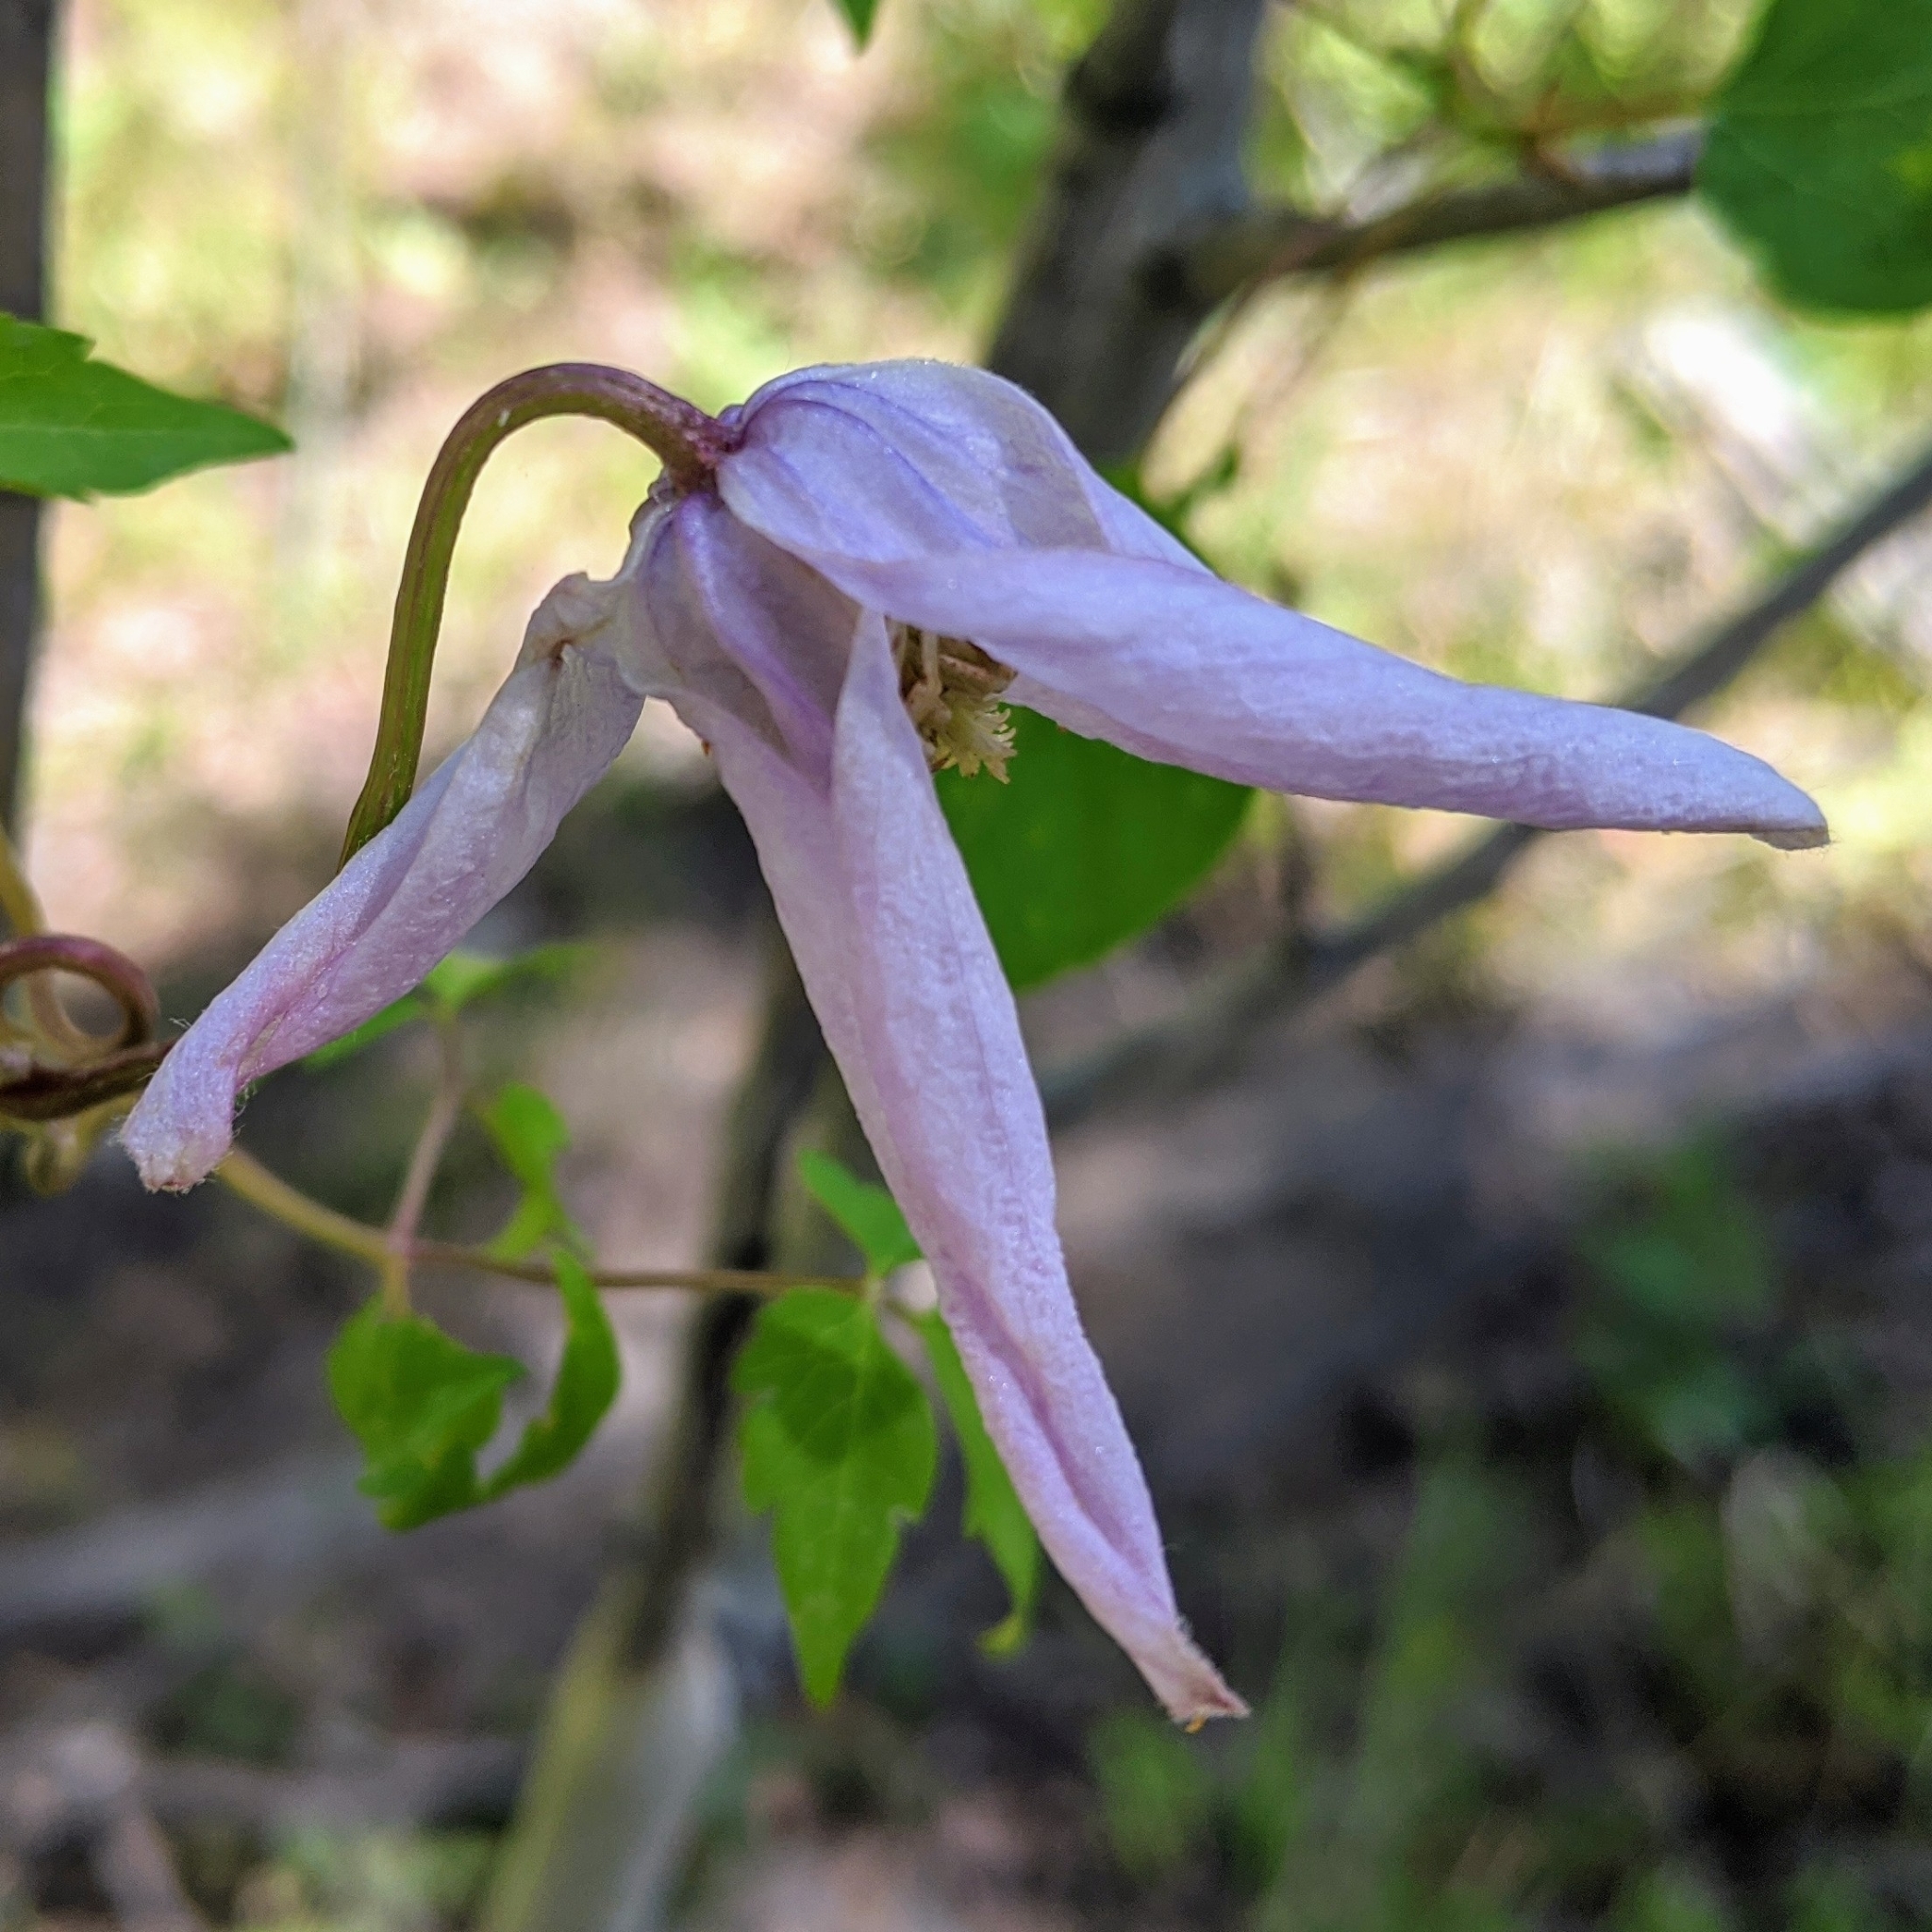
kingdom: Plantae
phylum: Tracheophyta
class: Magnoliopsida
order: Ranunculales
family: Ranunculaceae
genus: Clematis
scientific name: Clematis columbiana
